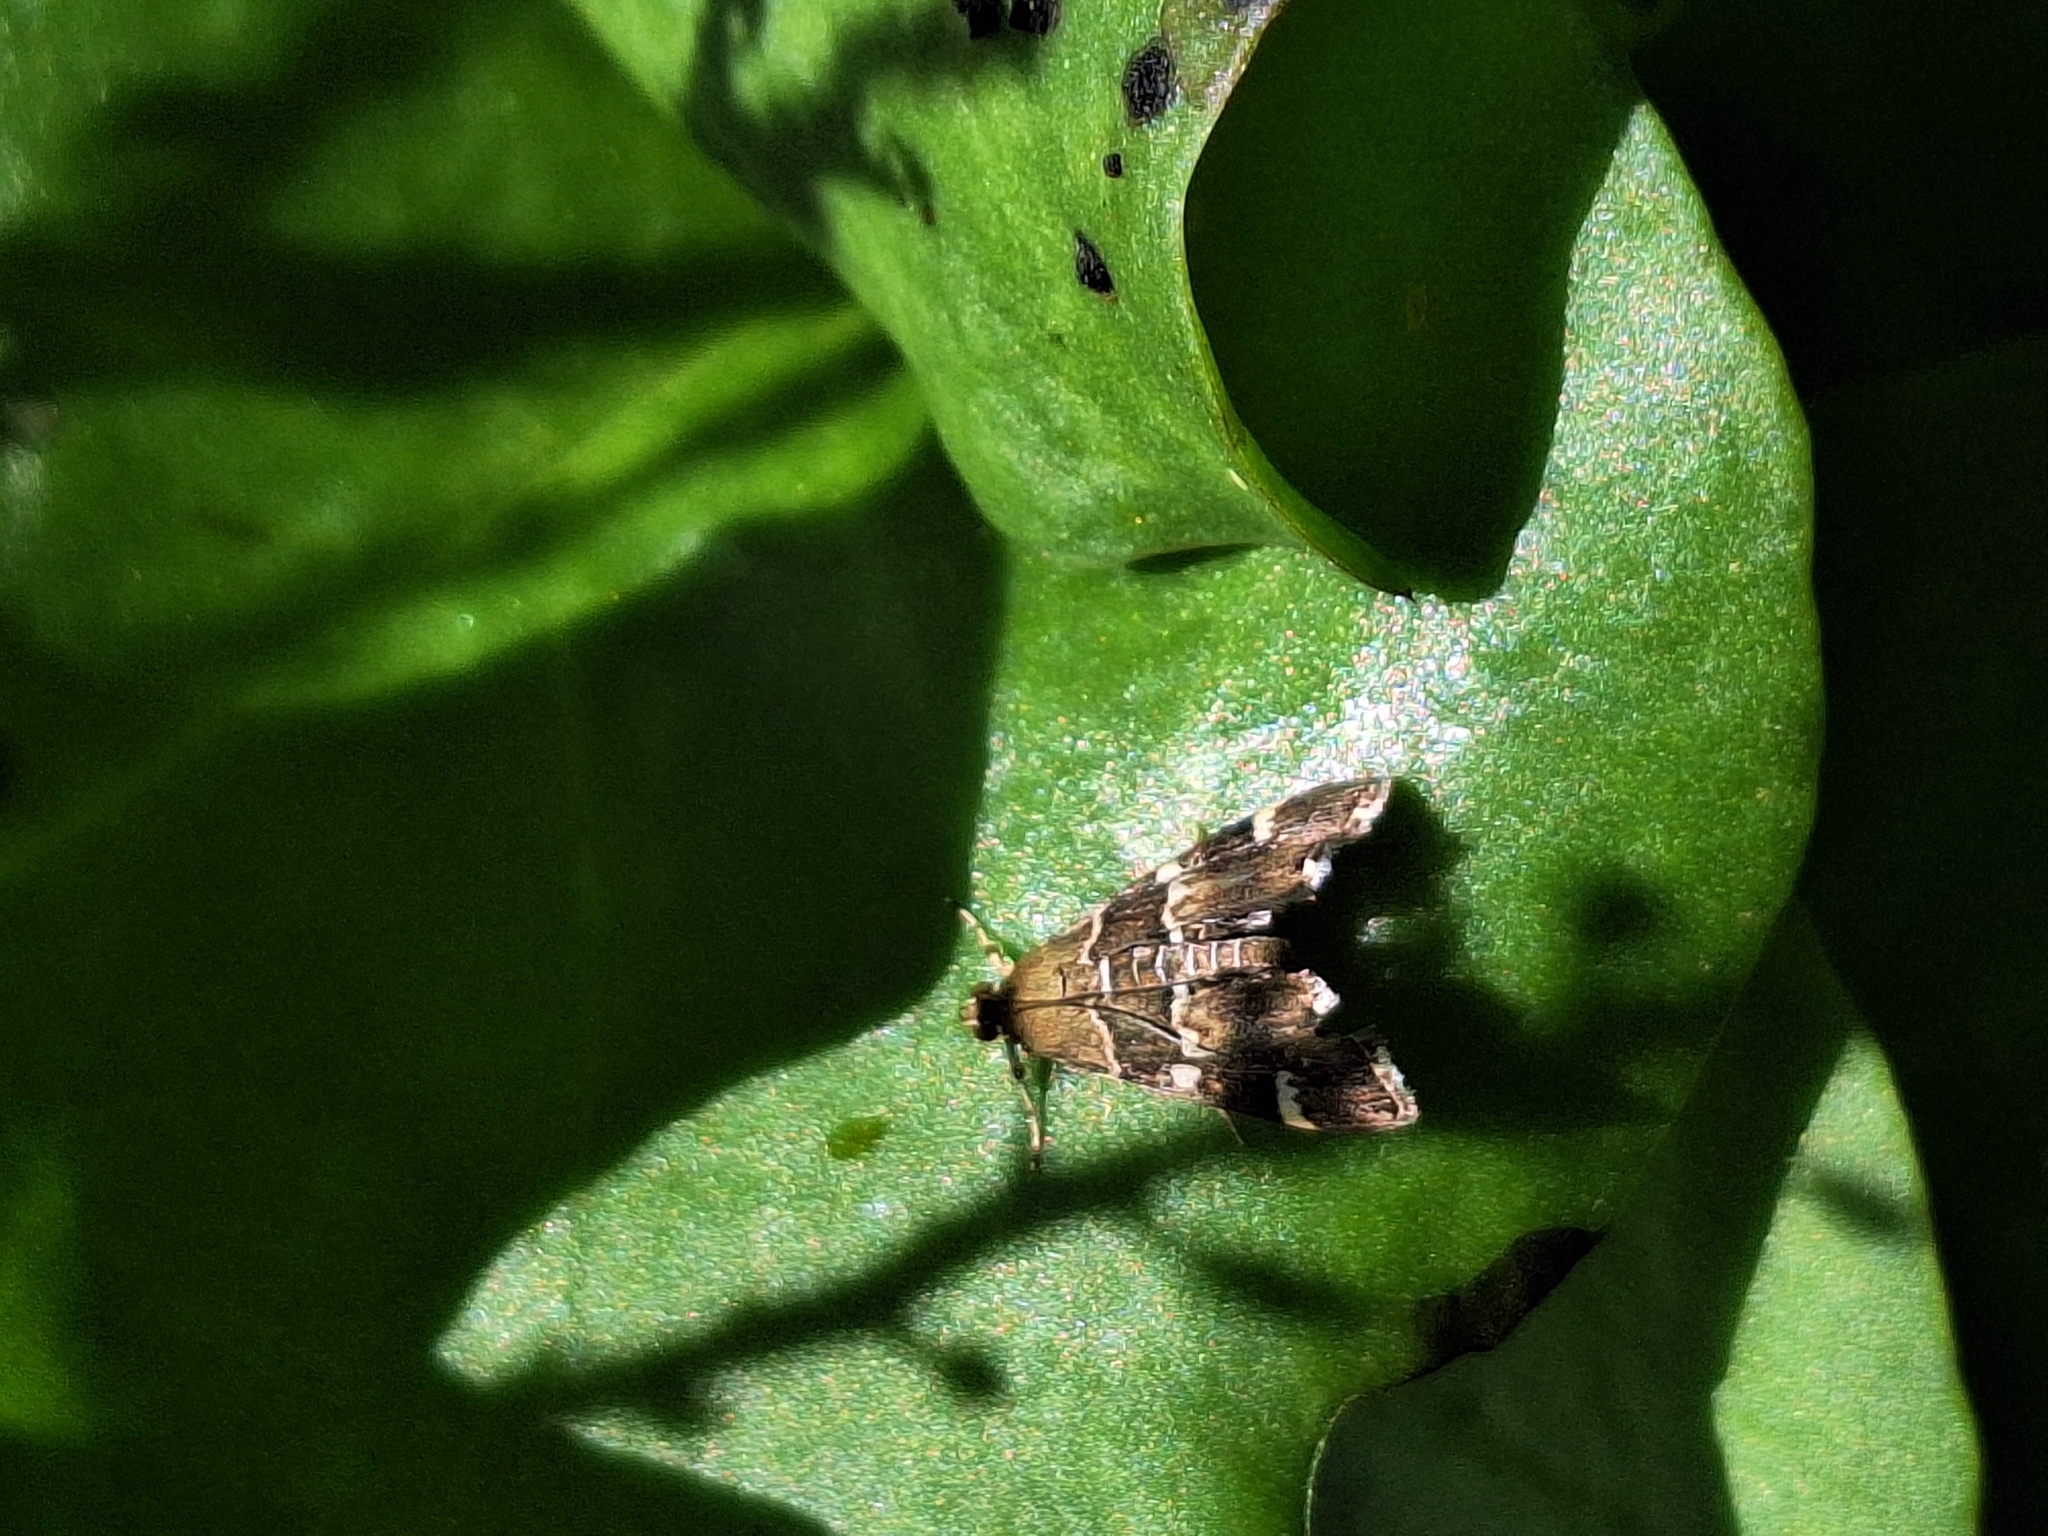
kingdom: Animalia
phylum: Arthropoda
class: Insecta
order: Lepidoptera
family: Crambidae
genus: Hymenia
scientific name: Hymenia perspectalis
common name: Spotted beet webworm
